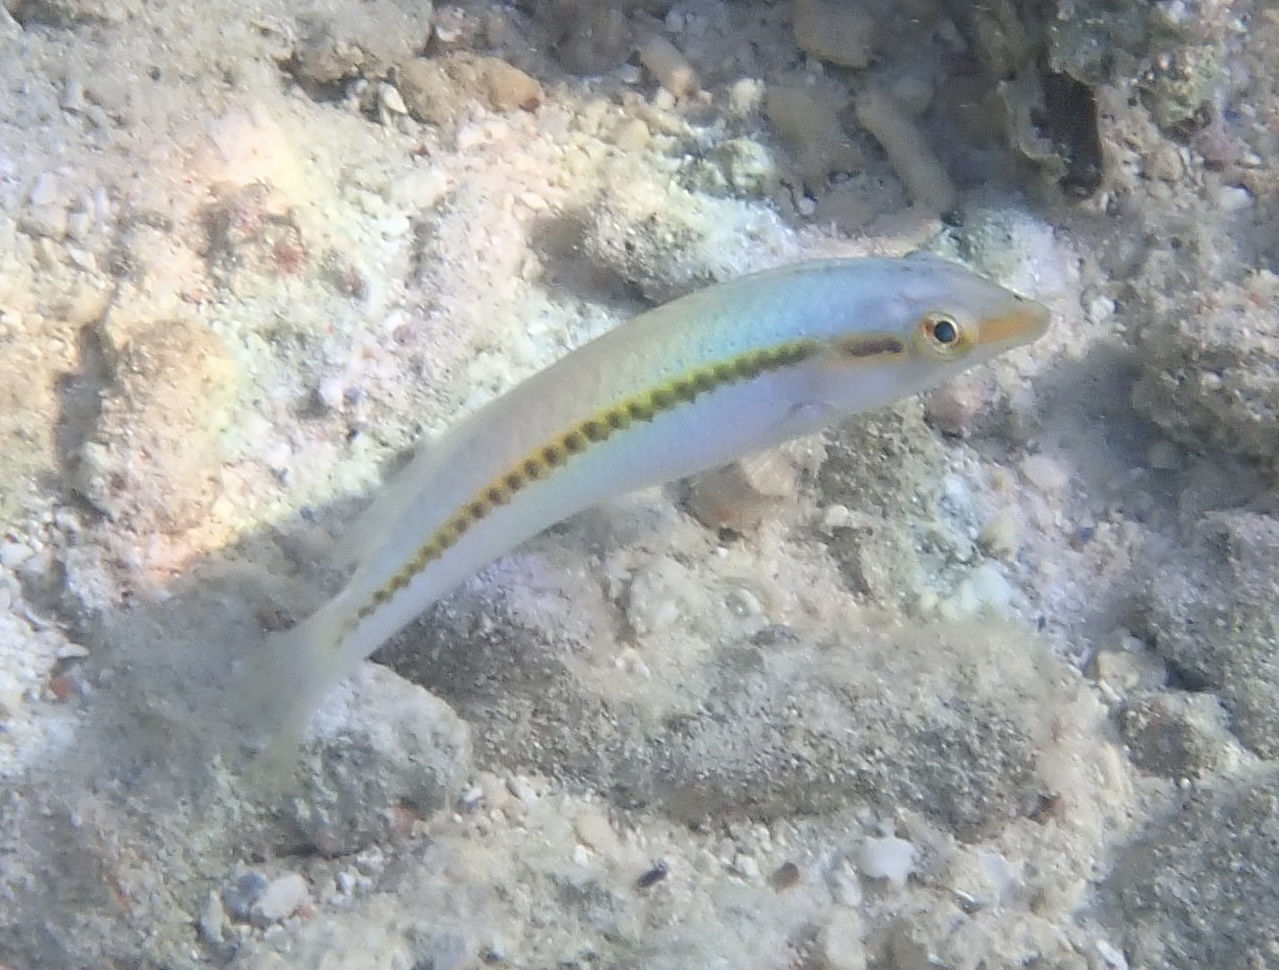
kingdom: Animalia
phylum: Chordata
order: Perciformes
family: Labridae
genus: Halichoeres
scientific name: Halichoeres scapularis
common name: Brownbanded wrasse
